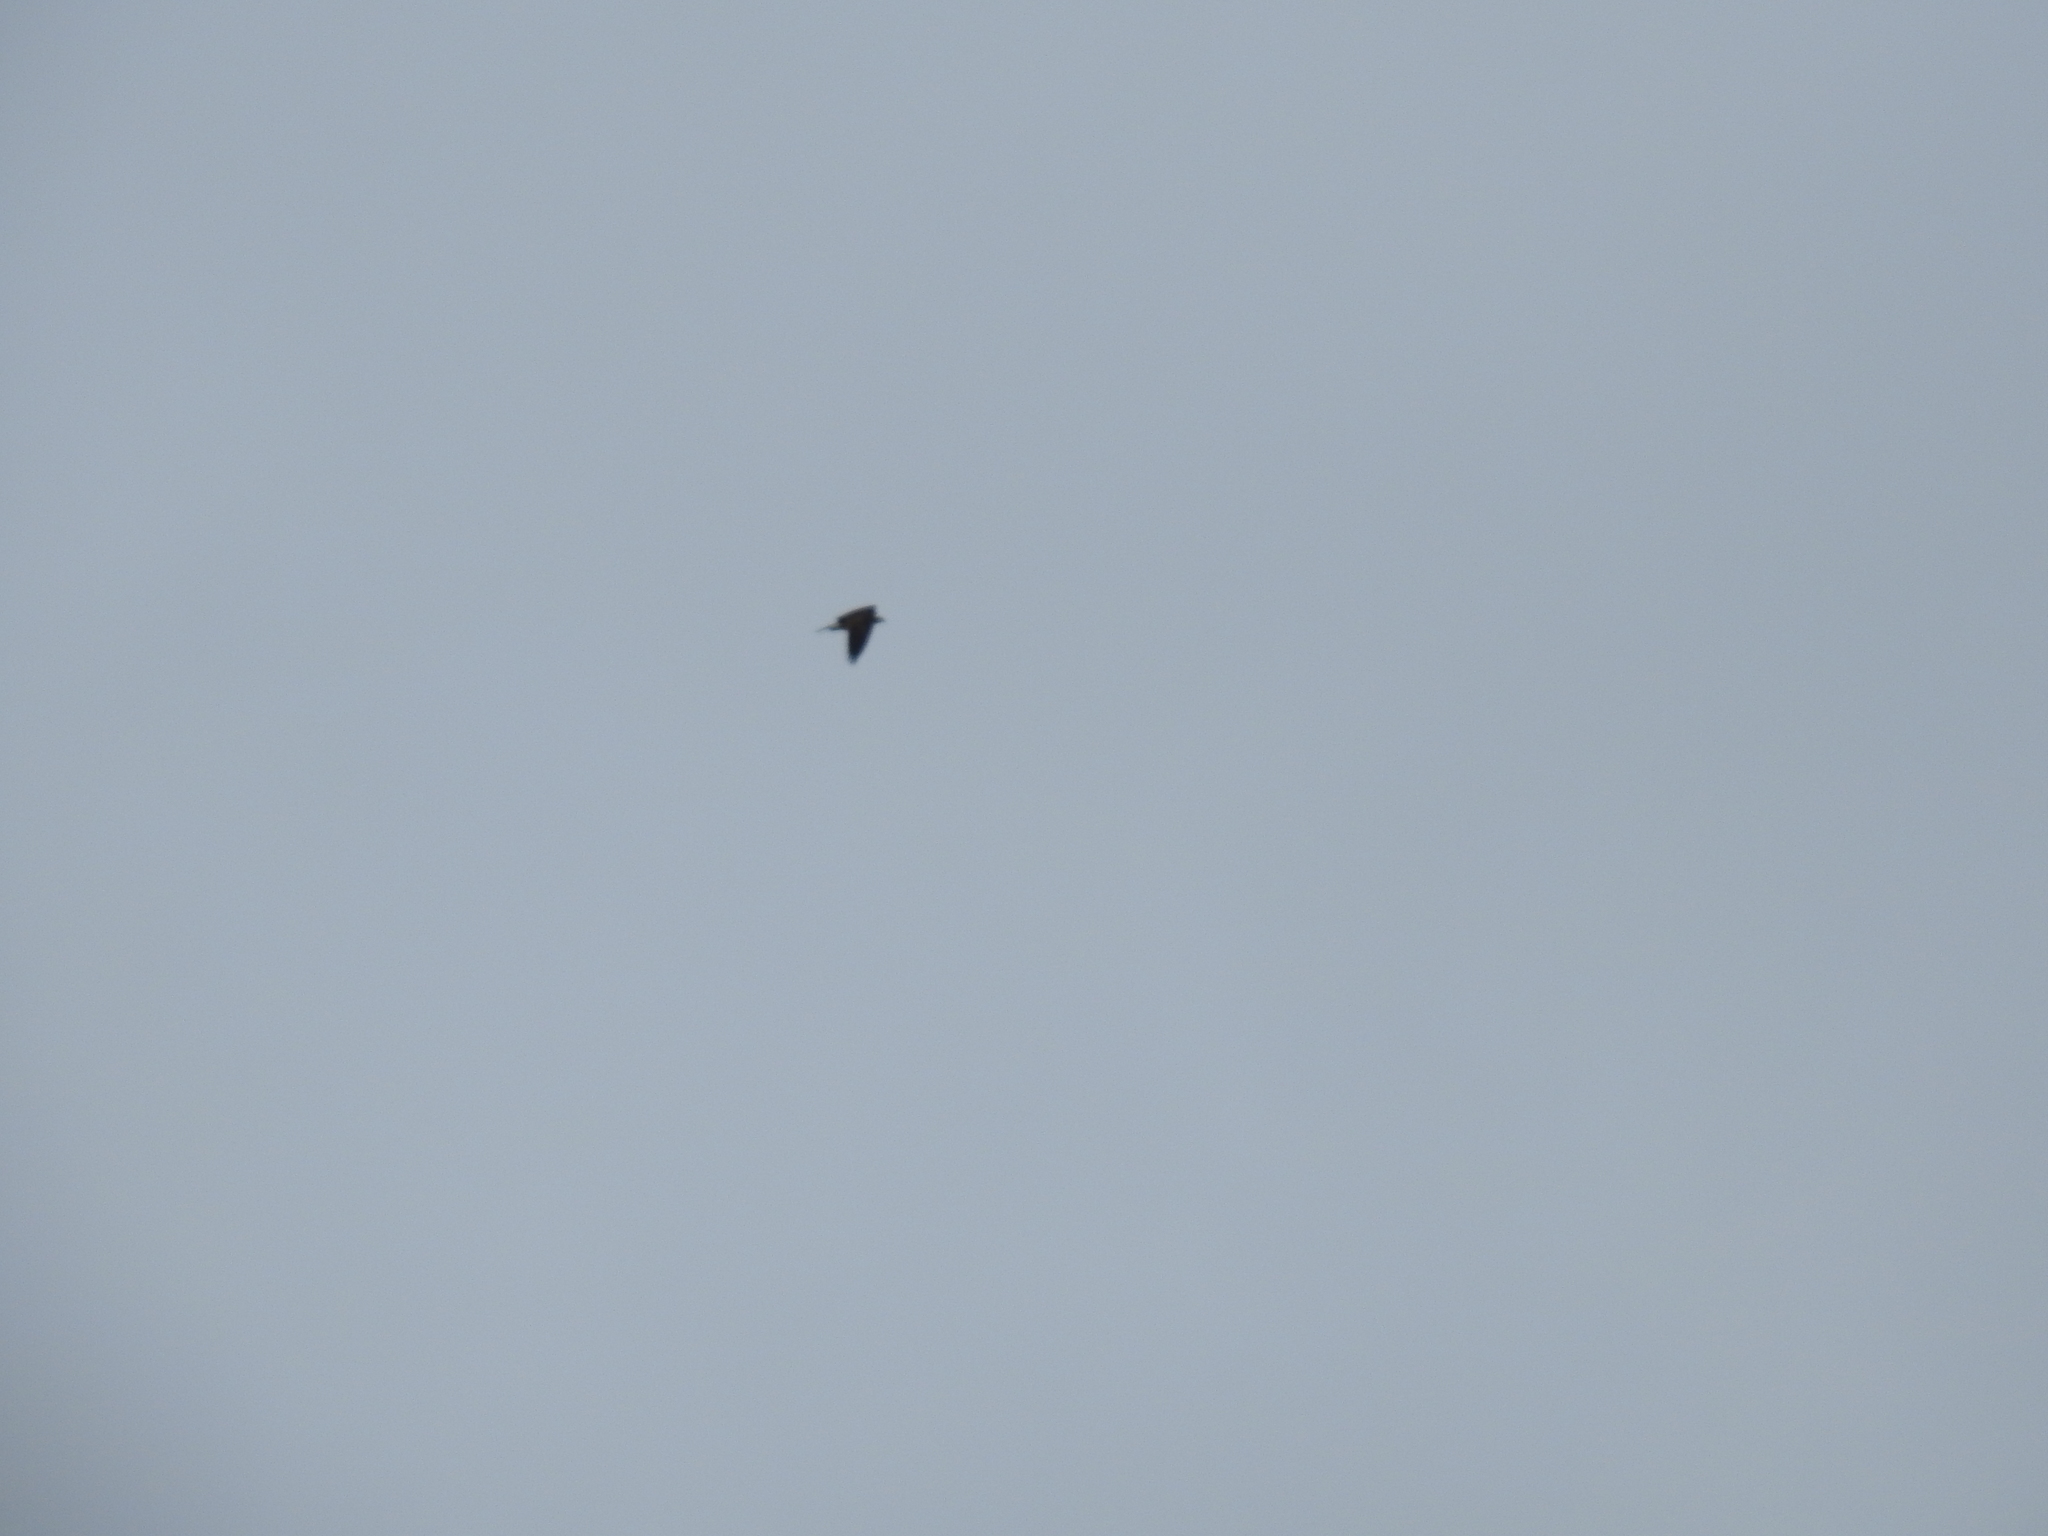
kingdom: Animalia
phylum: Chordata
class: Aves
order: Accipitriformes
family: Pandionidae
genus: Pandion
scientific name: Pandion haliaetus
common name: Osprey
